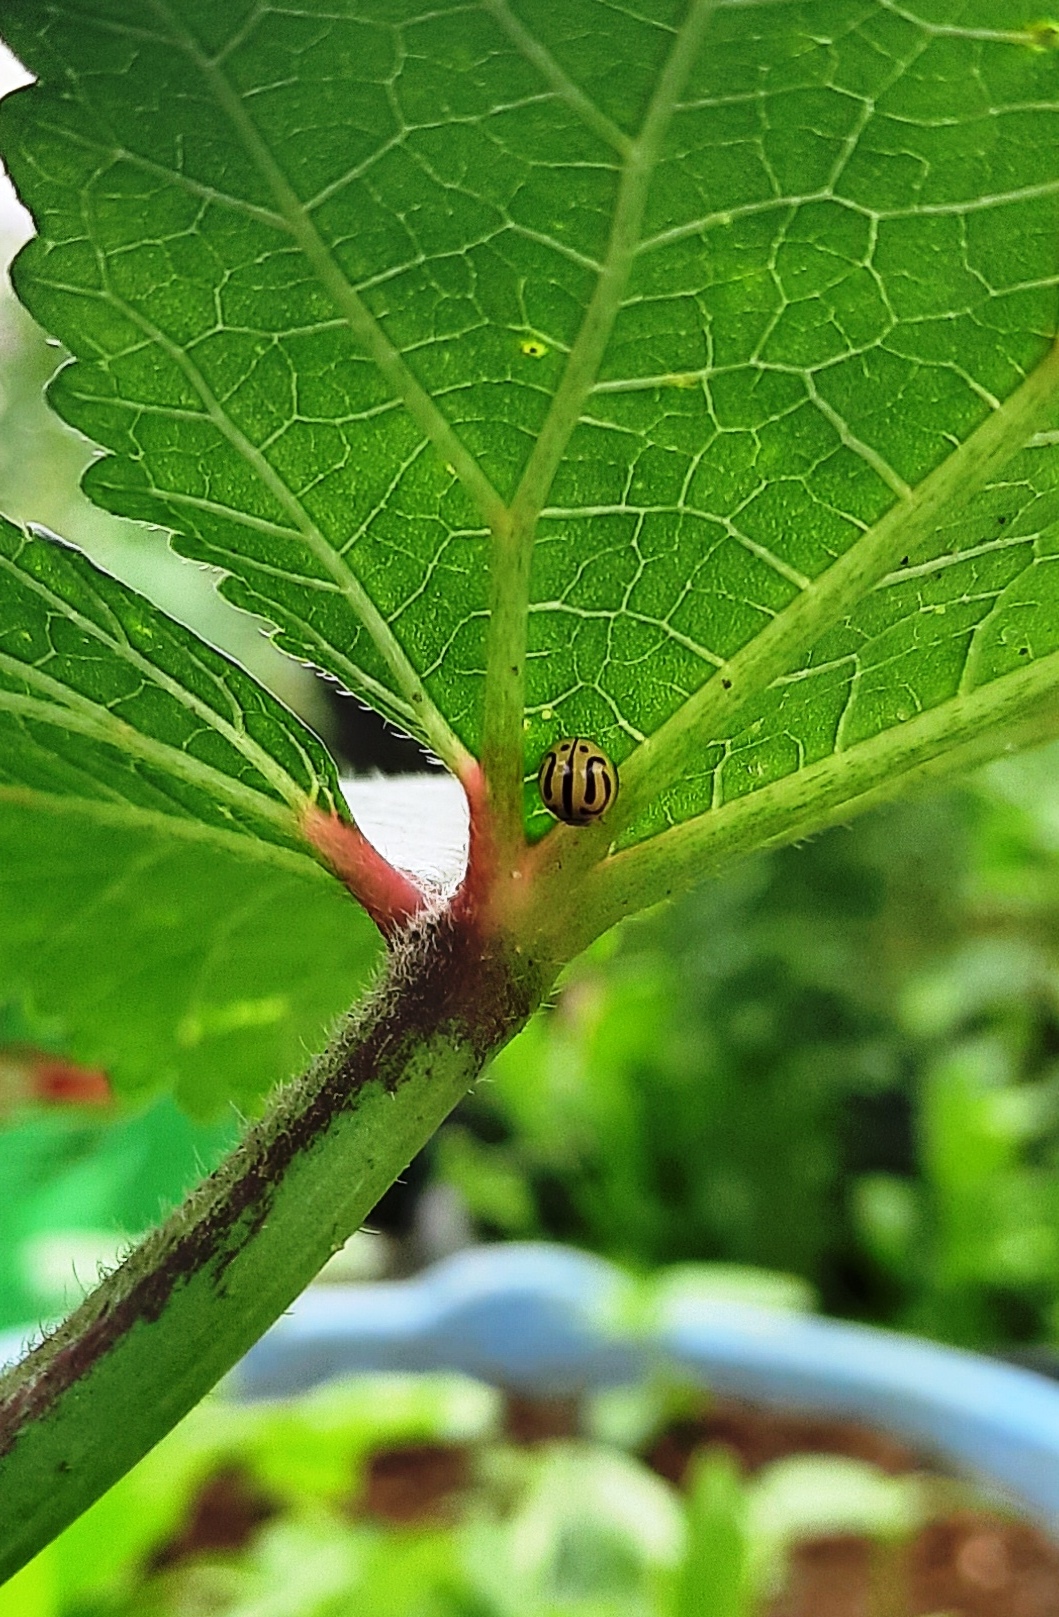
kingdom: Animalia
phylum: Arthropoda
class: Insecta
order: Coleoptera
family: Coccinellidae
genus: Anegleis
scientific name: Anegleis cardoni
